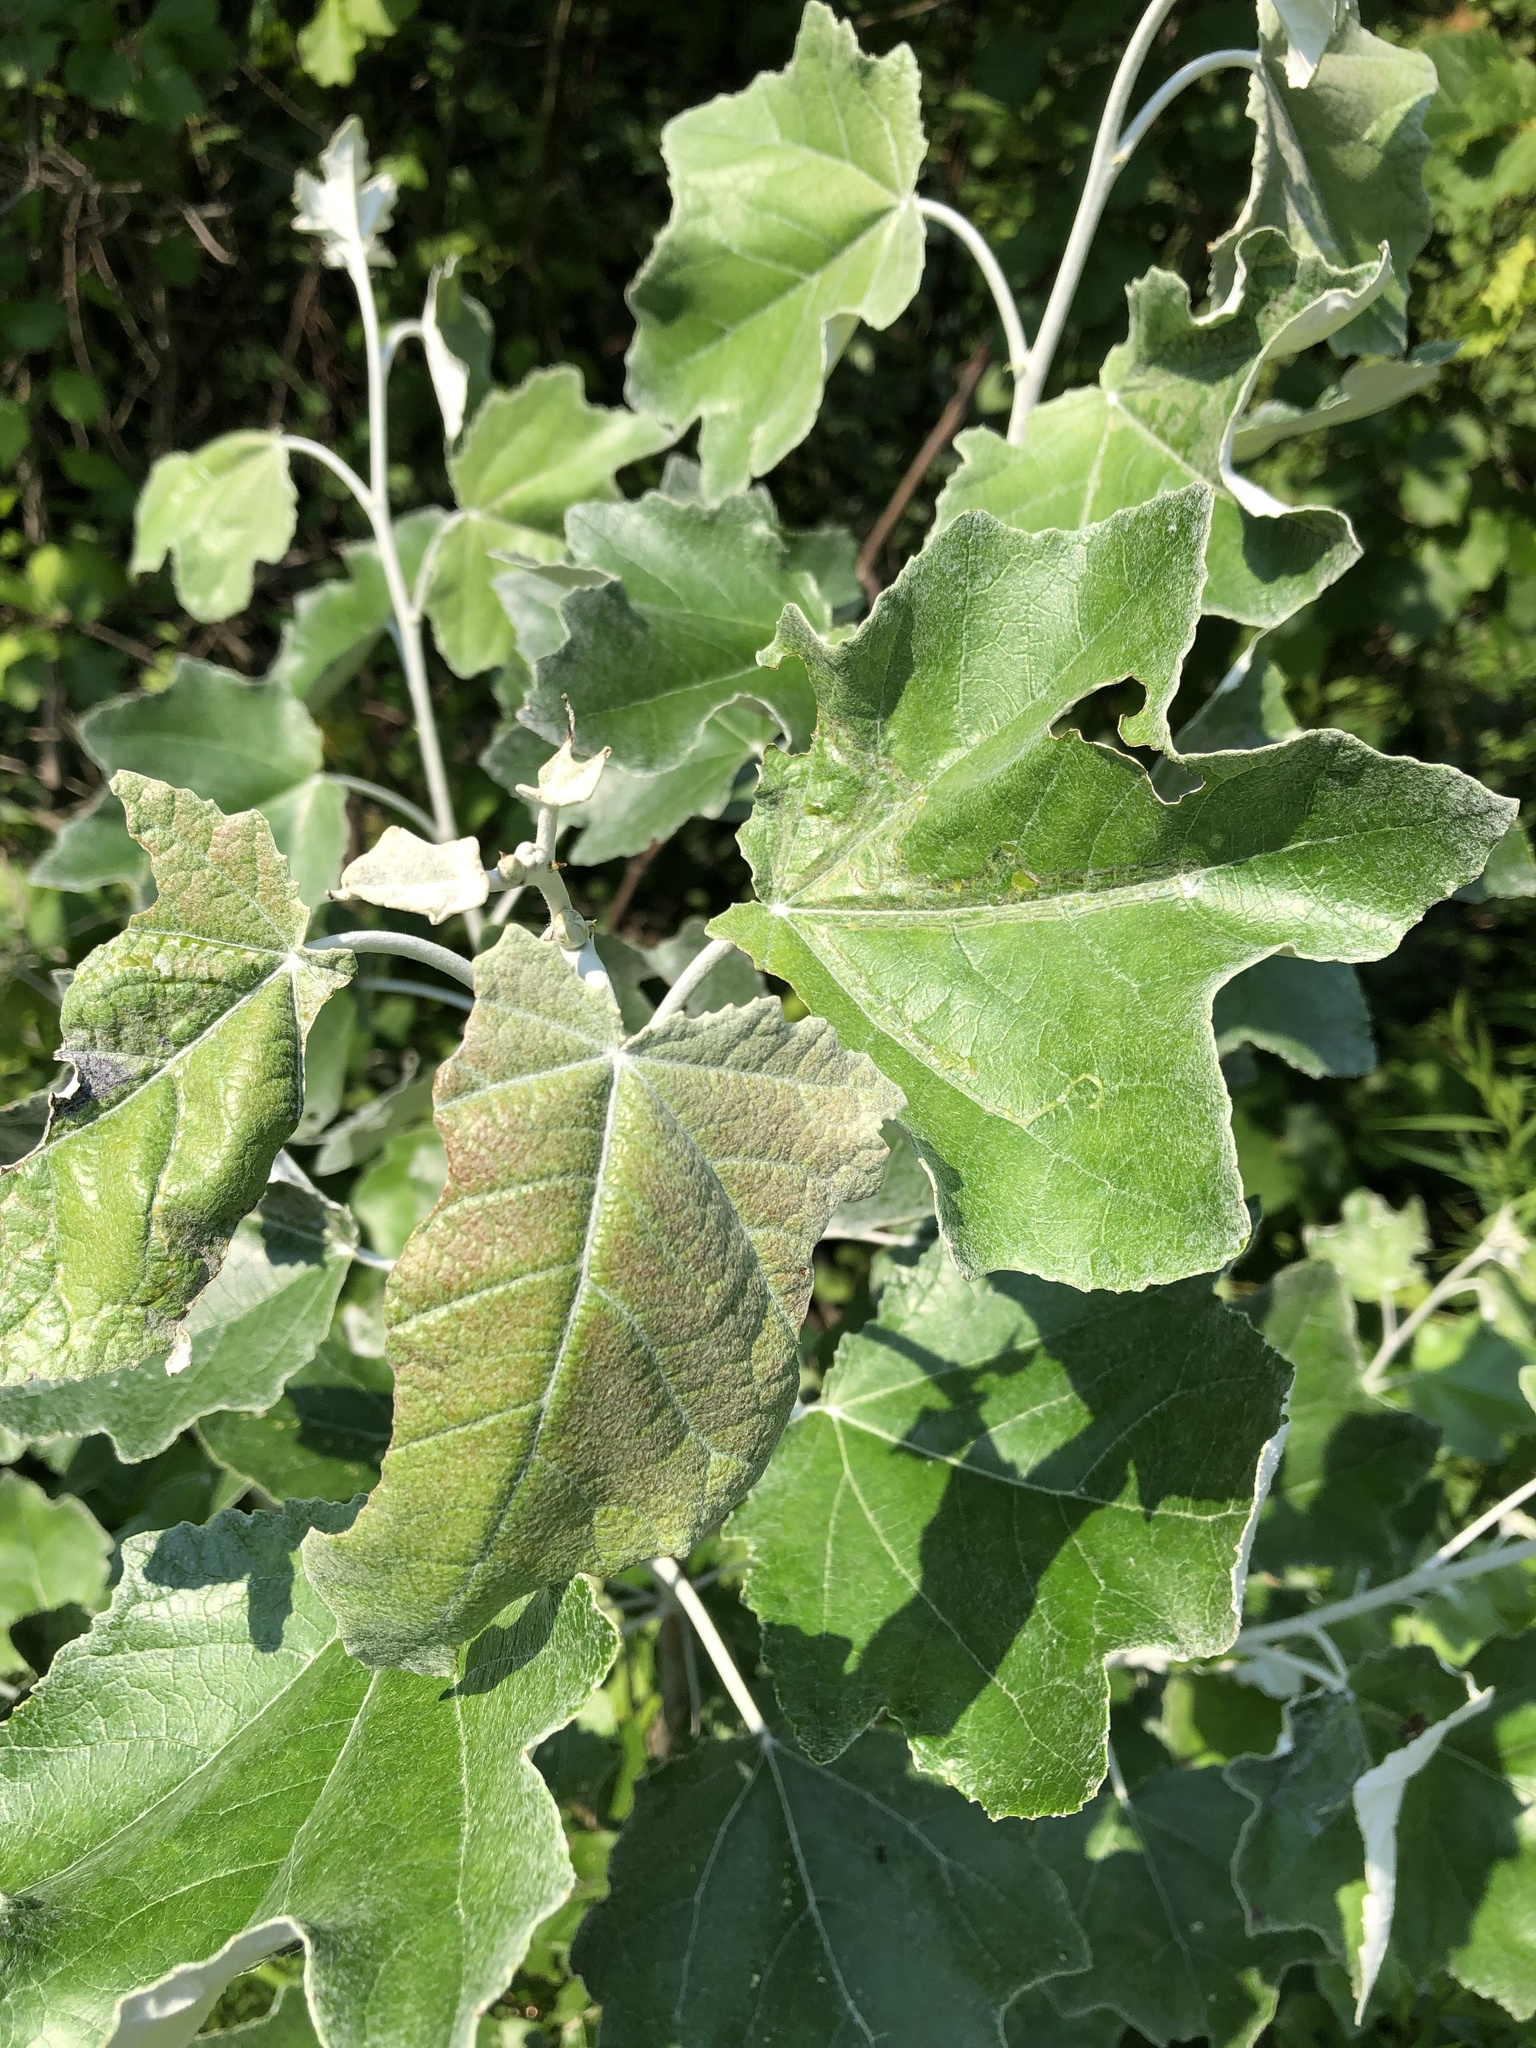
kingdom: Plantae
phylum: Tracheophyta
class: Magnoliopsida
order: Malpighiales
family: Salicaceae
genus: Populus
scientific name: Populus alba
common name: White poplar
